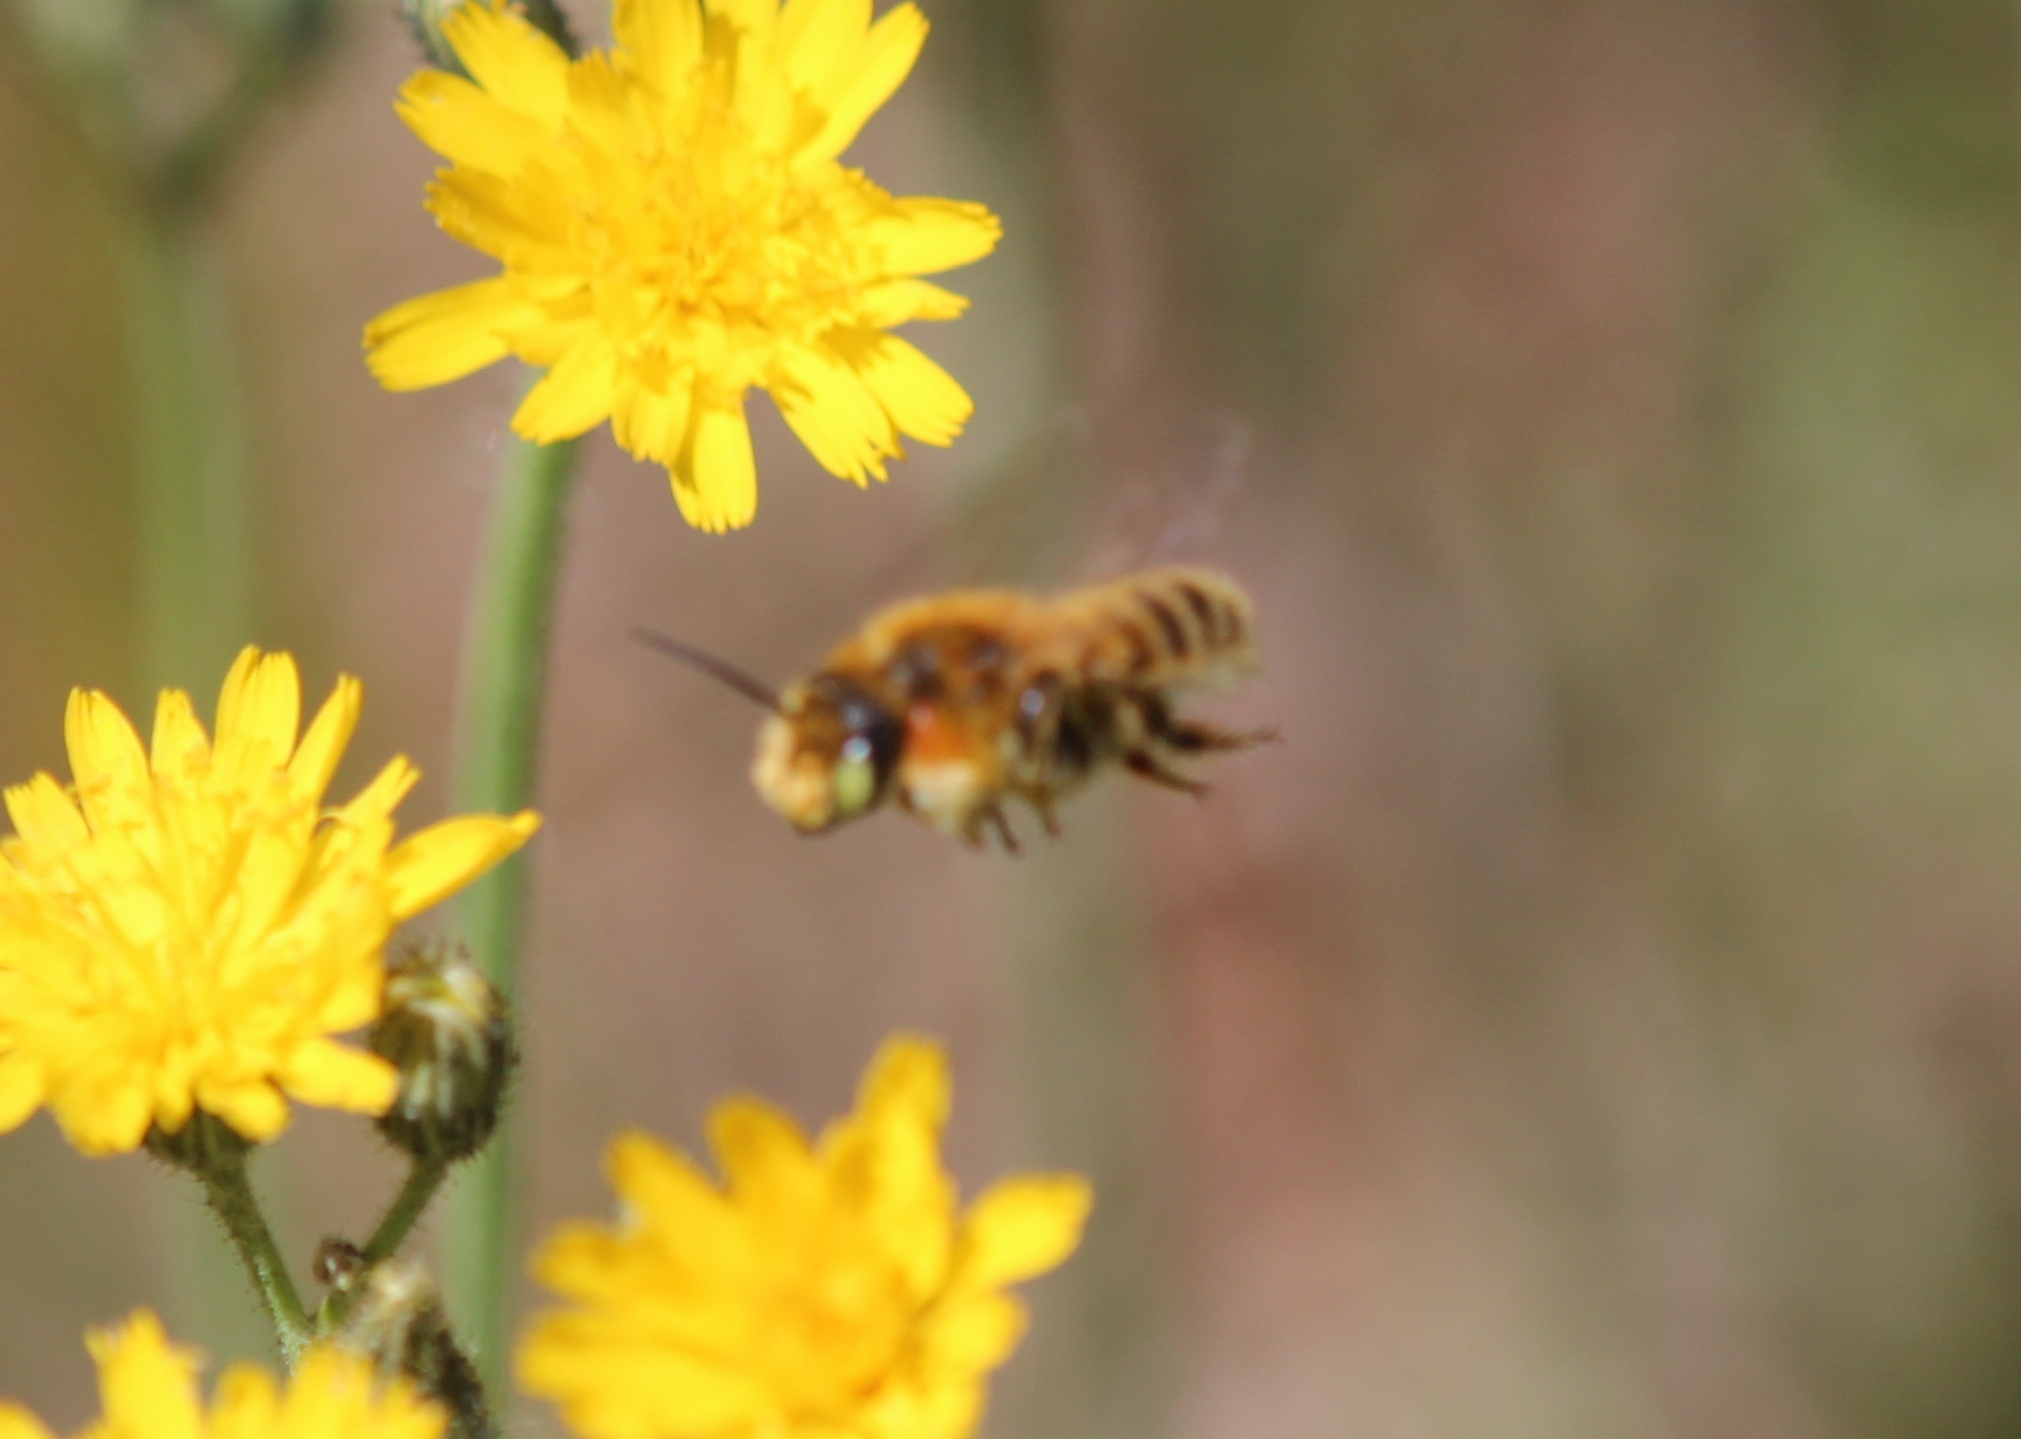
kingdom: Animalia
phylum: Arthropoda
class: Insecta
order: Hymenoptera
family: Megachilidae
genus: Megachile
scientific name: Megachile latimanus
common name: Leafcutting bee
